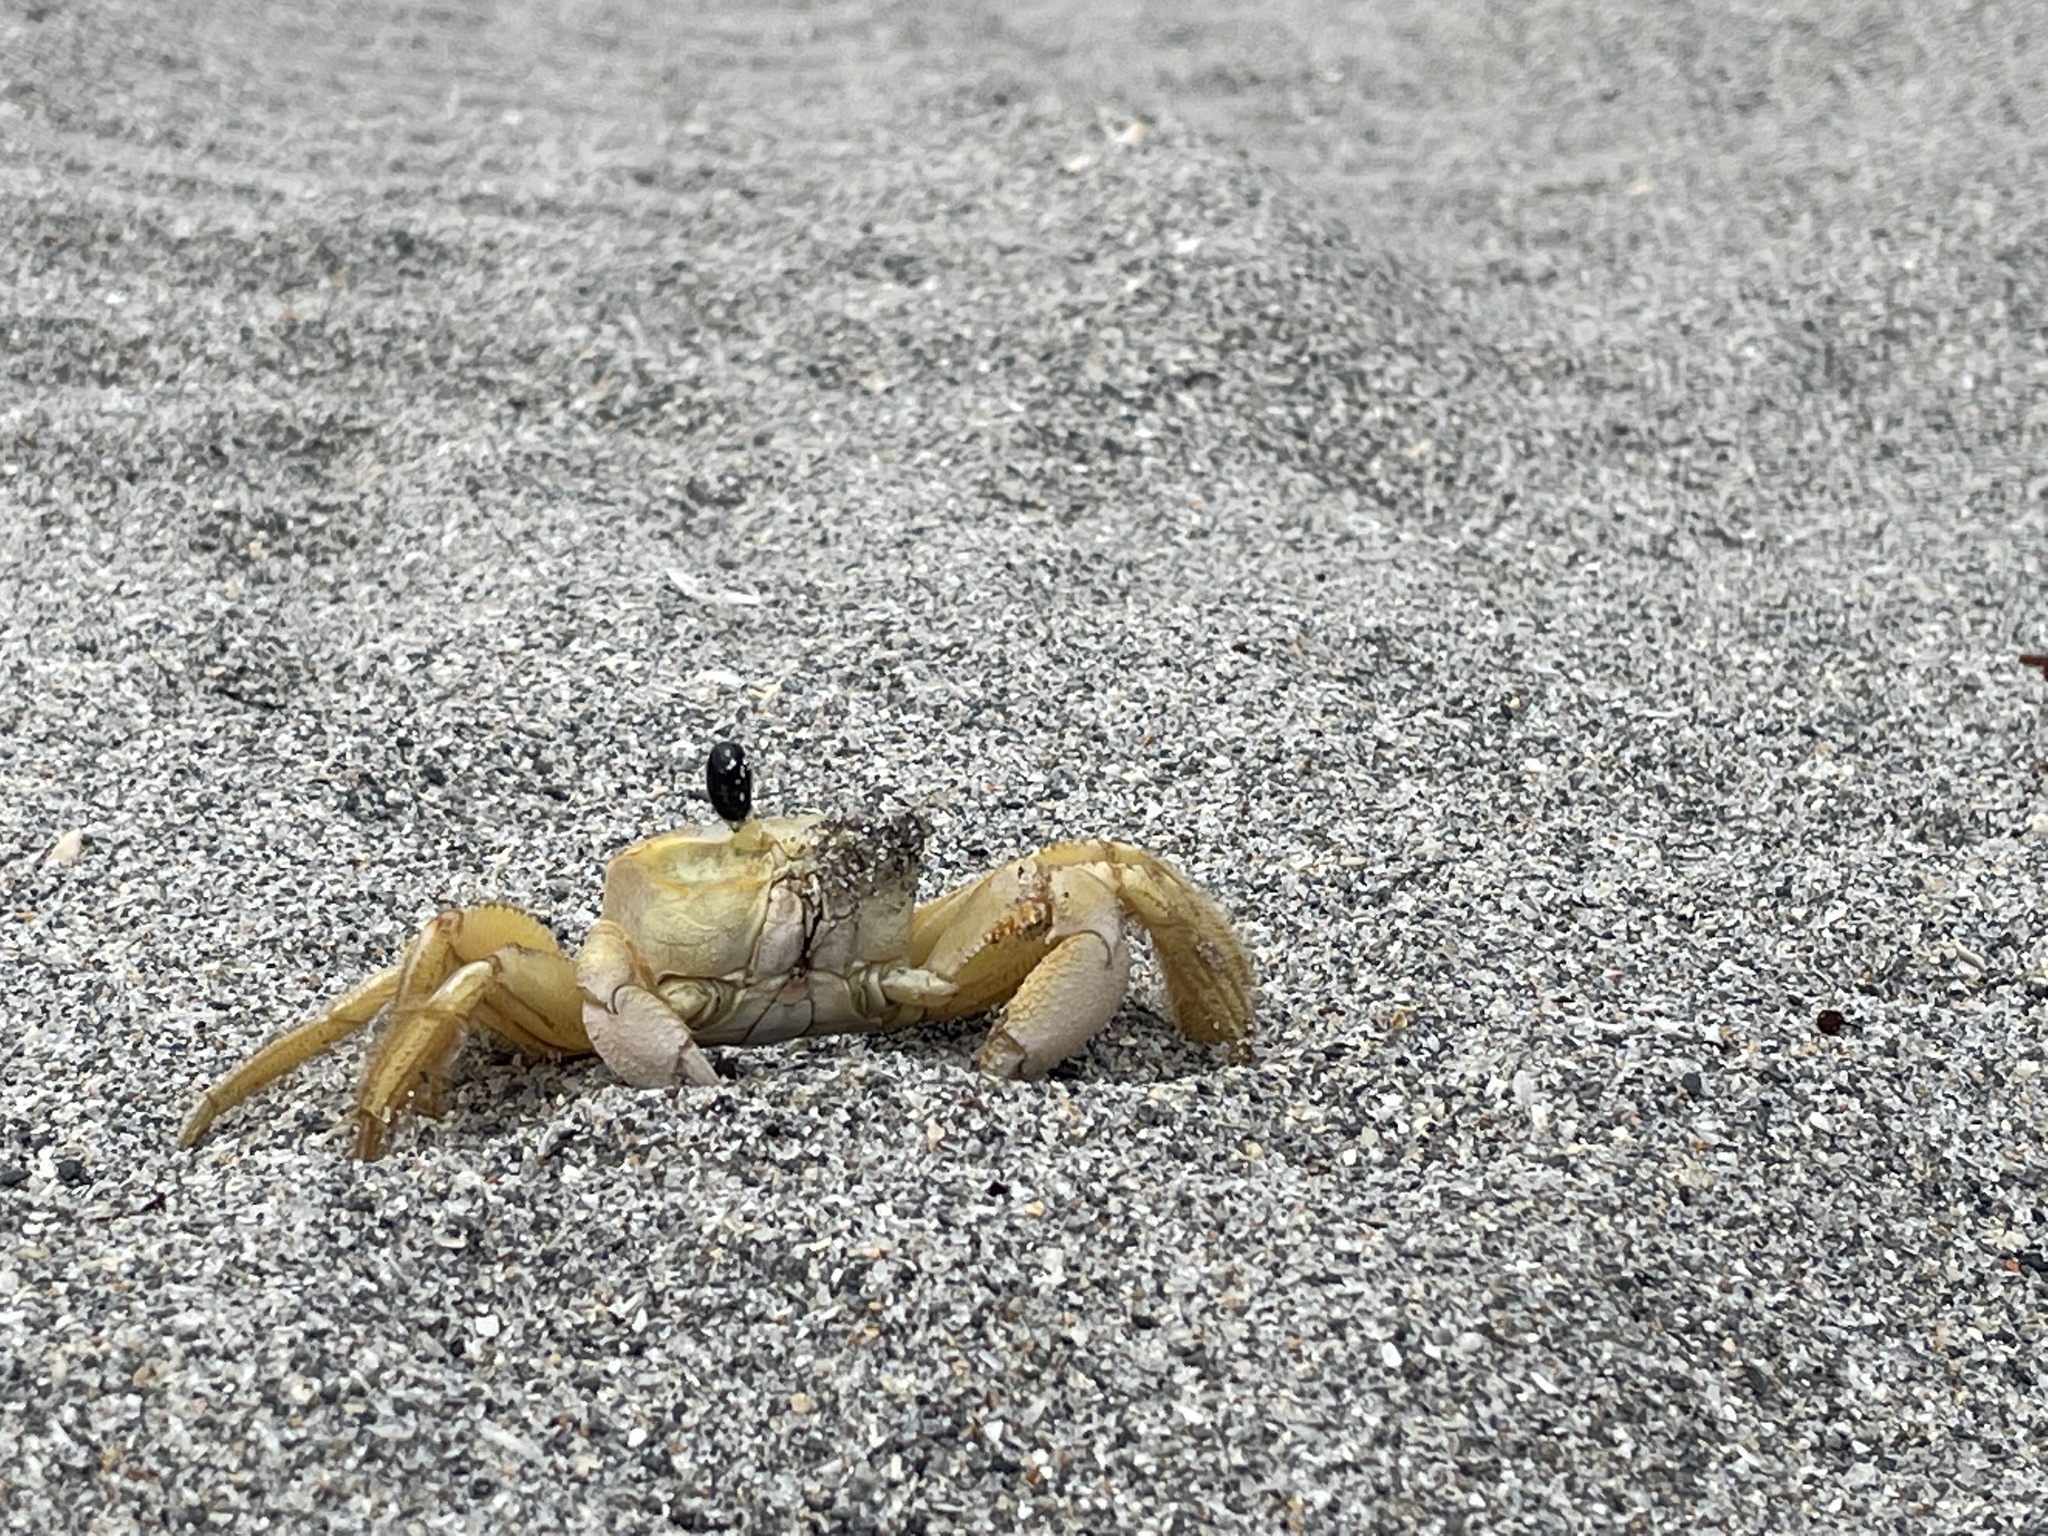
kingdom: Animalia
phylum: Arthropoda
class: Malacostraca
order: Decapoda
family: Ocypodidae
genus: Ocypode
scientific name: Ocypode quadrata
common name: Ghost crab
